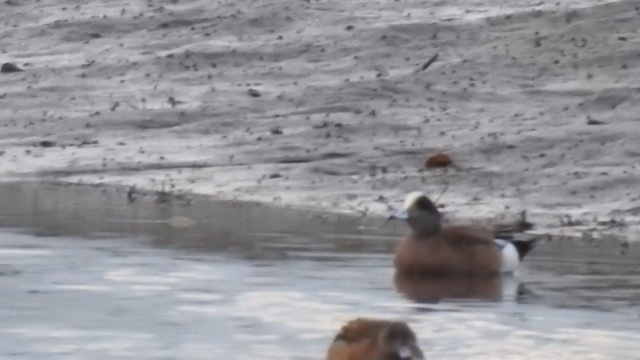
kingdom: Animalia
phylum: Chordata
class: Aves
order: Anseriformes
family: Anatidae
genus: Mareca
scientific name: Mareca americana
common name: American wigeon
